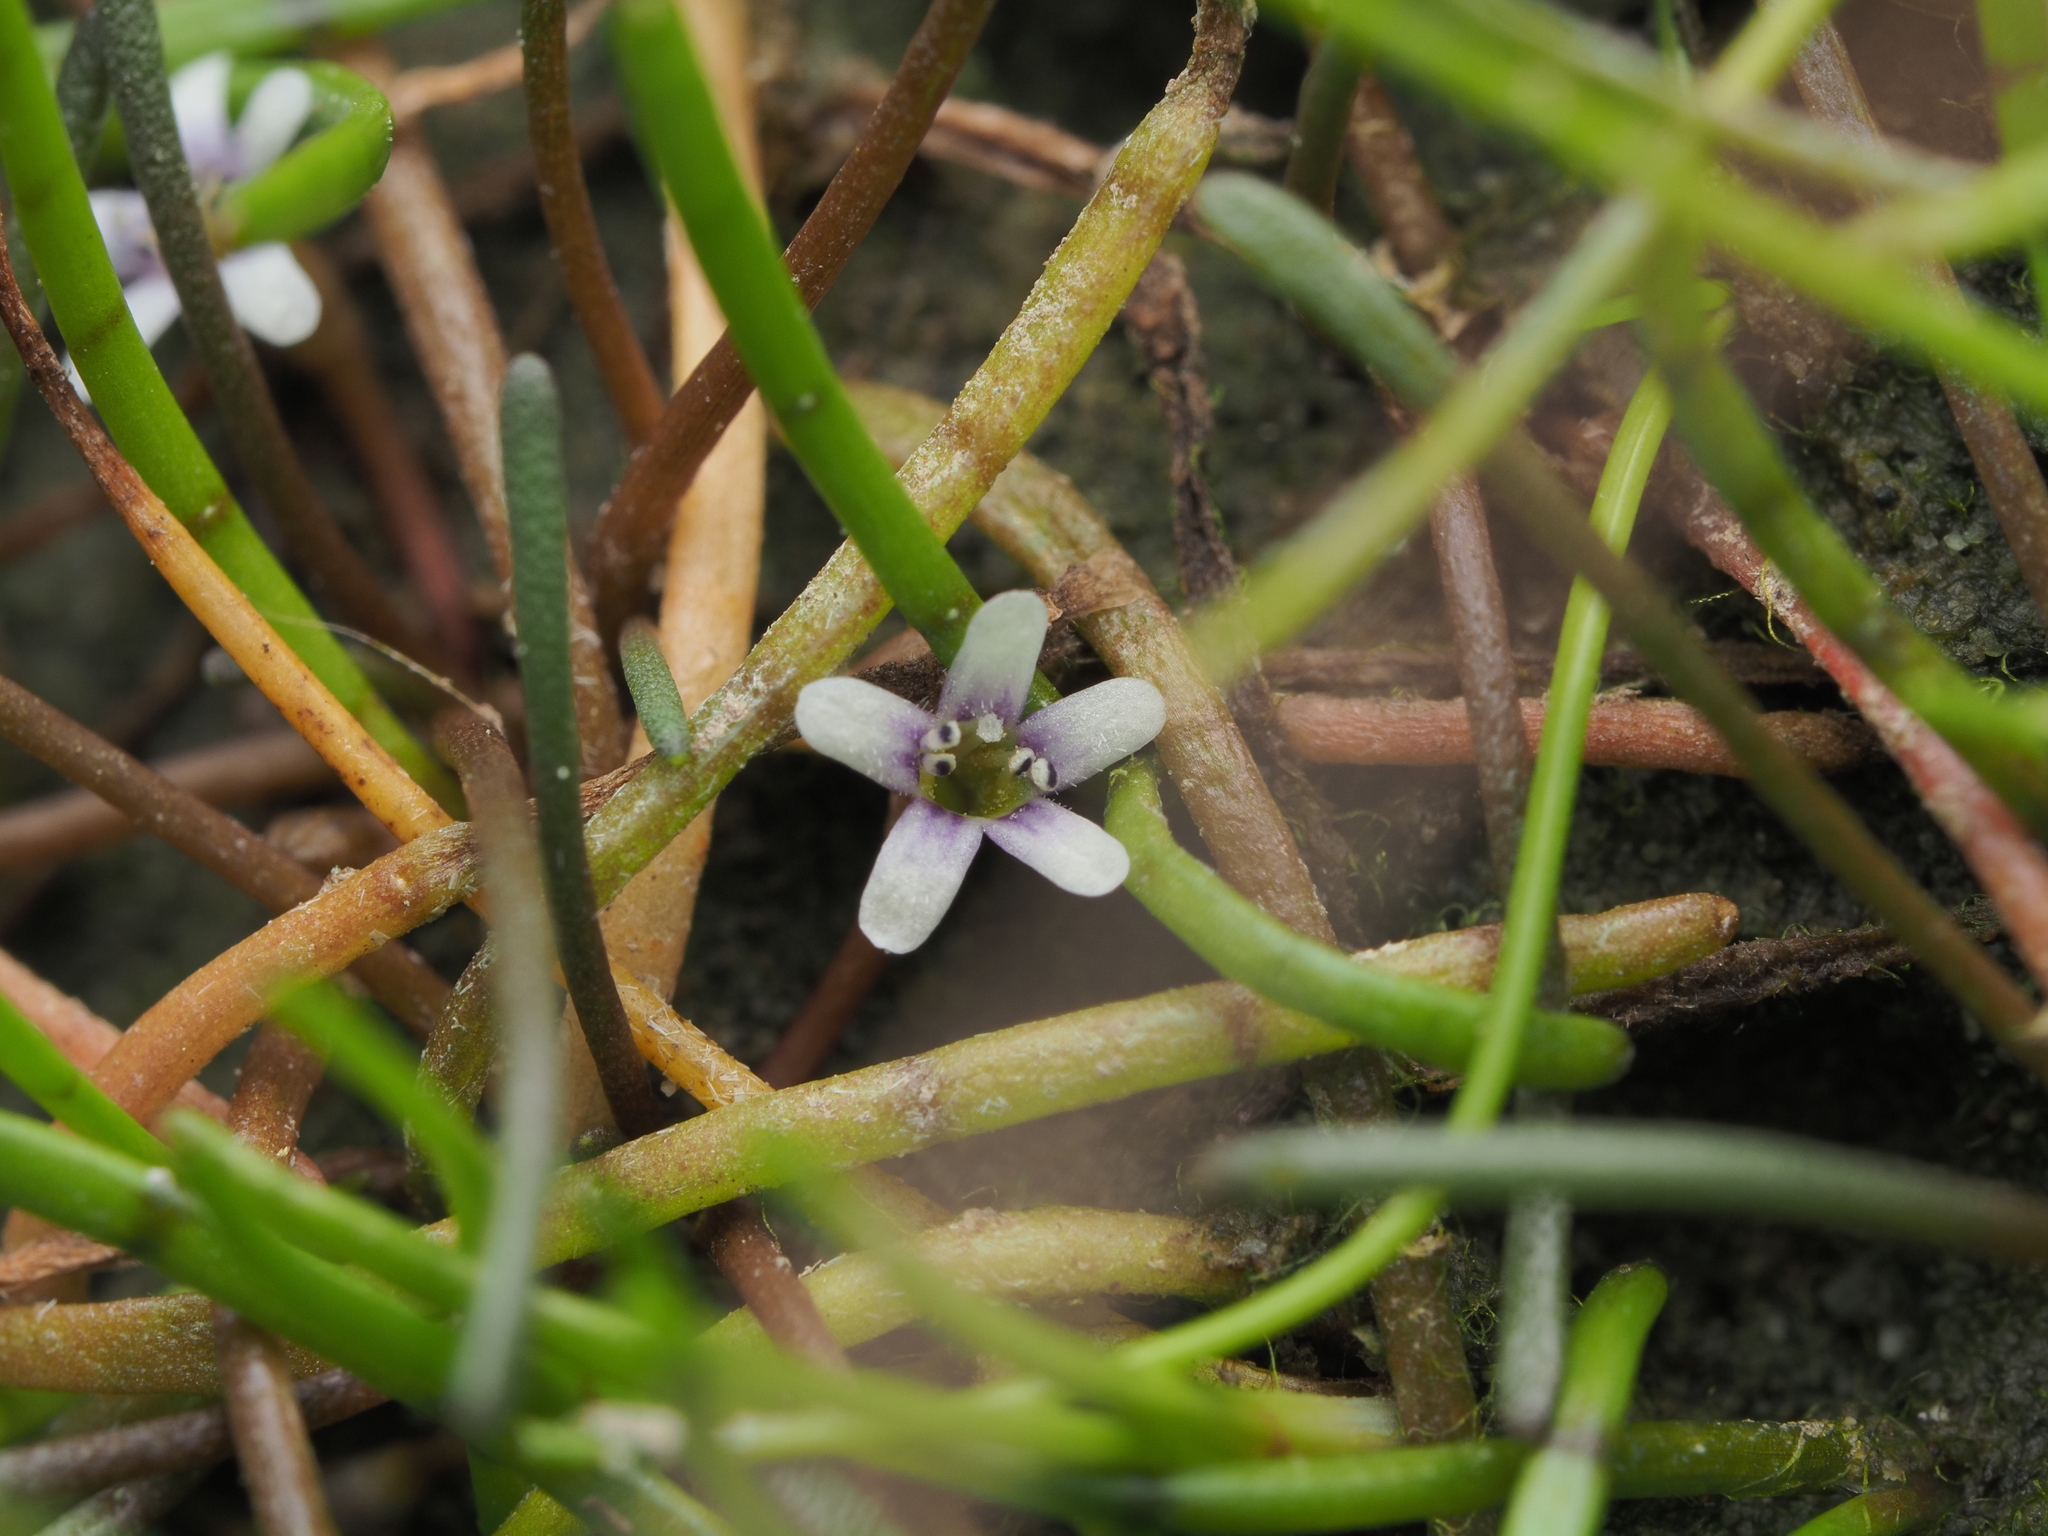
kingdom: Plantae
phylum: Tracheophyta
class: Magnoliopsida
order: Lamiales
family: Scrophulariaceae
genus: Limosella
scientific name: Limosella australis
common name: Welsh mudwort
